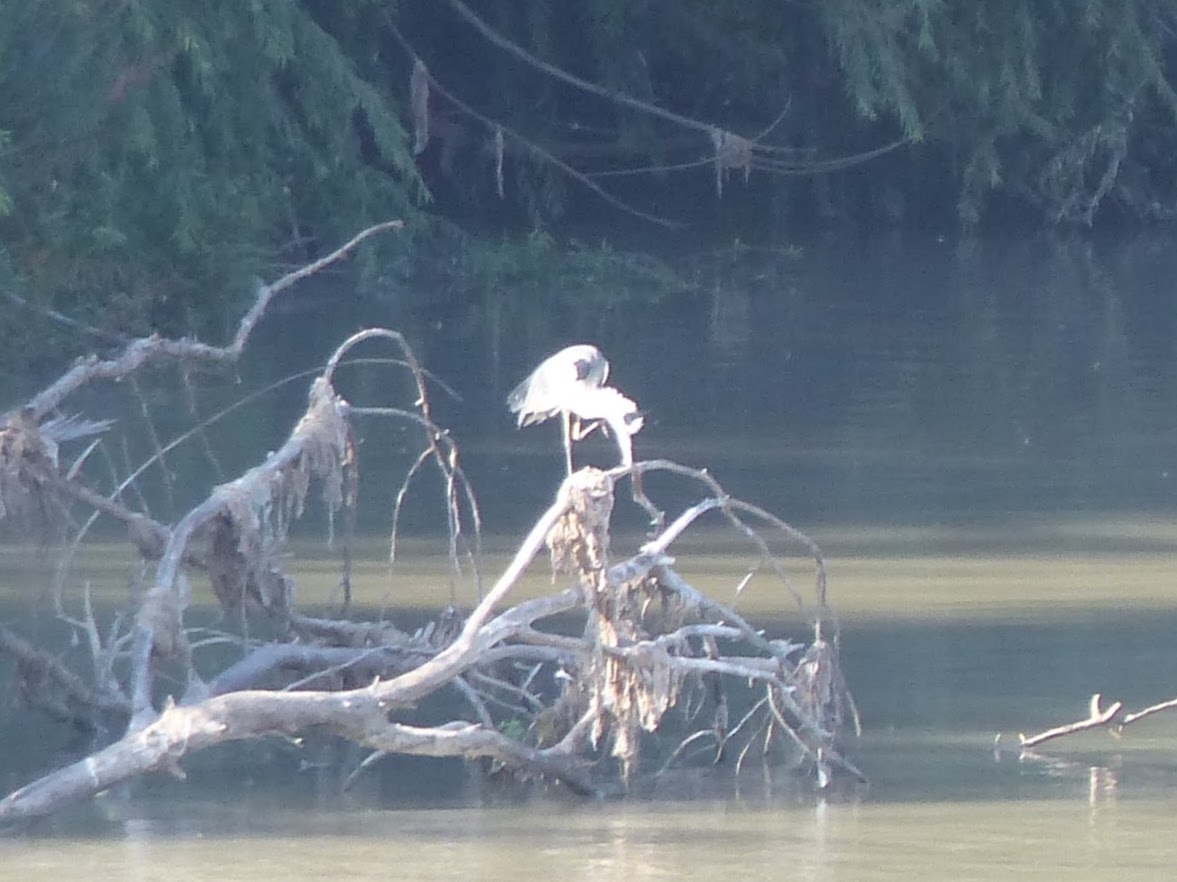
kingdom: Animalia
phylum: Chordata
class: Aves
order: Pelecaniformes
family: Ardeidae
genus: Ardea
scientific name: Ardea cinerea
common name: Grey heron
